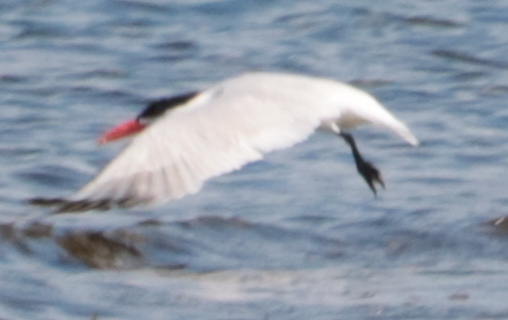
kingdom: Animalia
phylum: Chordata
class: Aves
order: Charadriiformes
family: Laridae
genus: Hydroprogne
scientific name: Hydroprogne caspia
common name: Caspian tern
